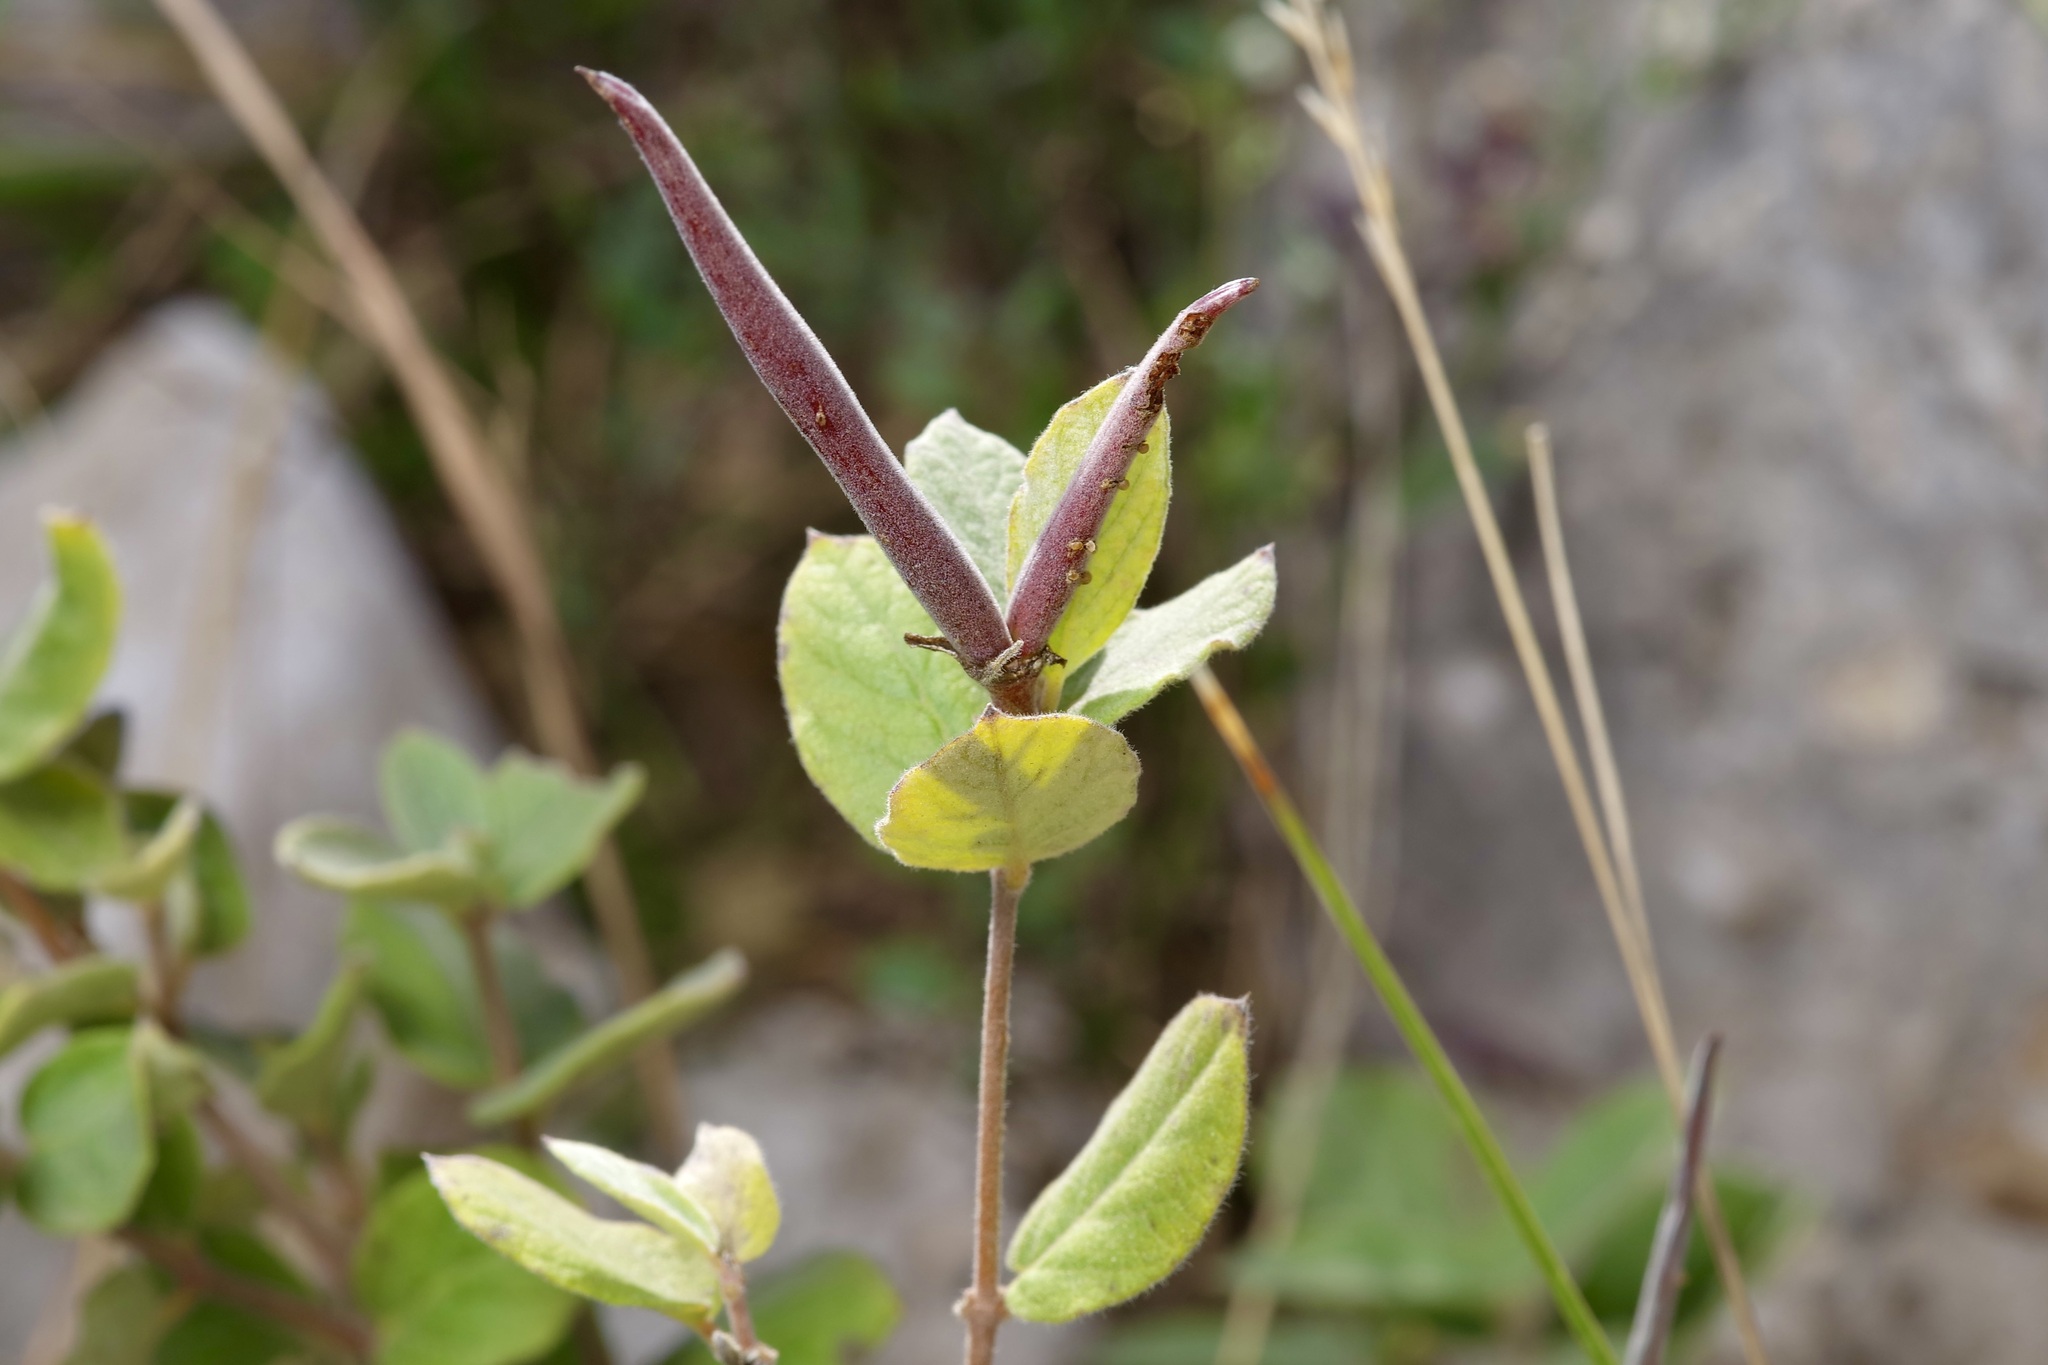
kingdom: Plantae
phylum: Tracheophyta
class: Magnoliopsida
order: Gentianales
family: Apocynaceae
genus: Mandevilla
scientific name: Mandevilla macrosiphon
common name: Plateau rocktrumpet
